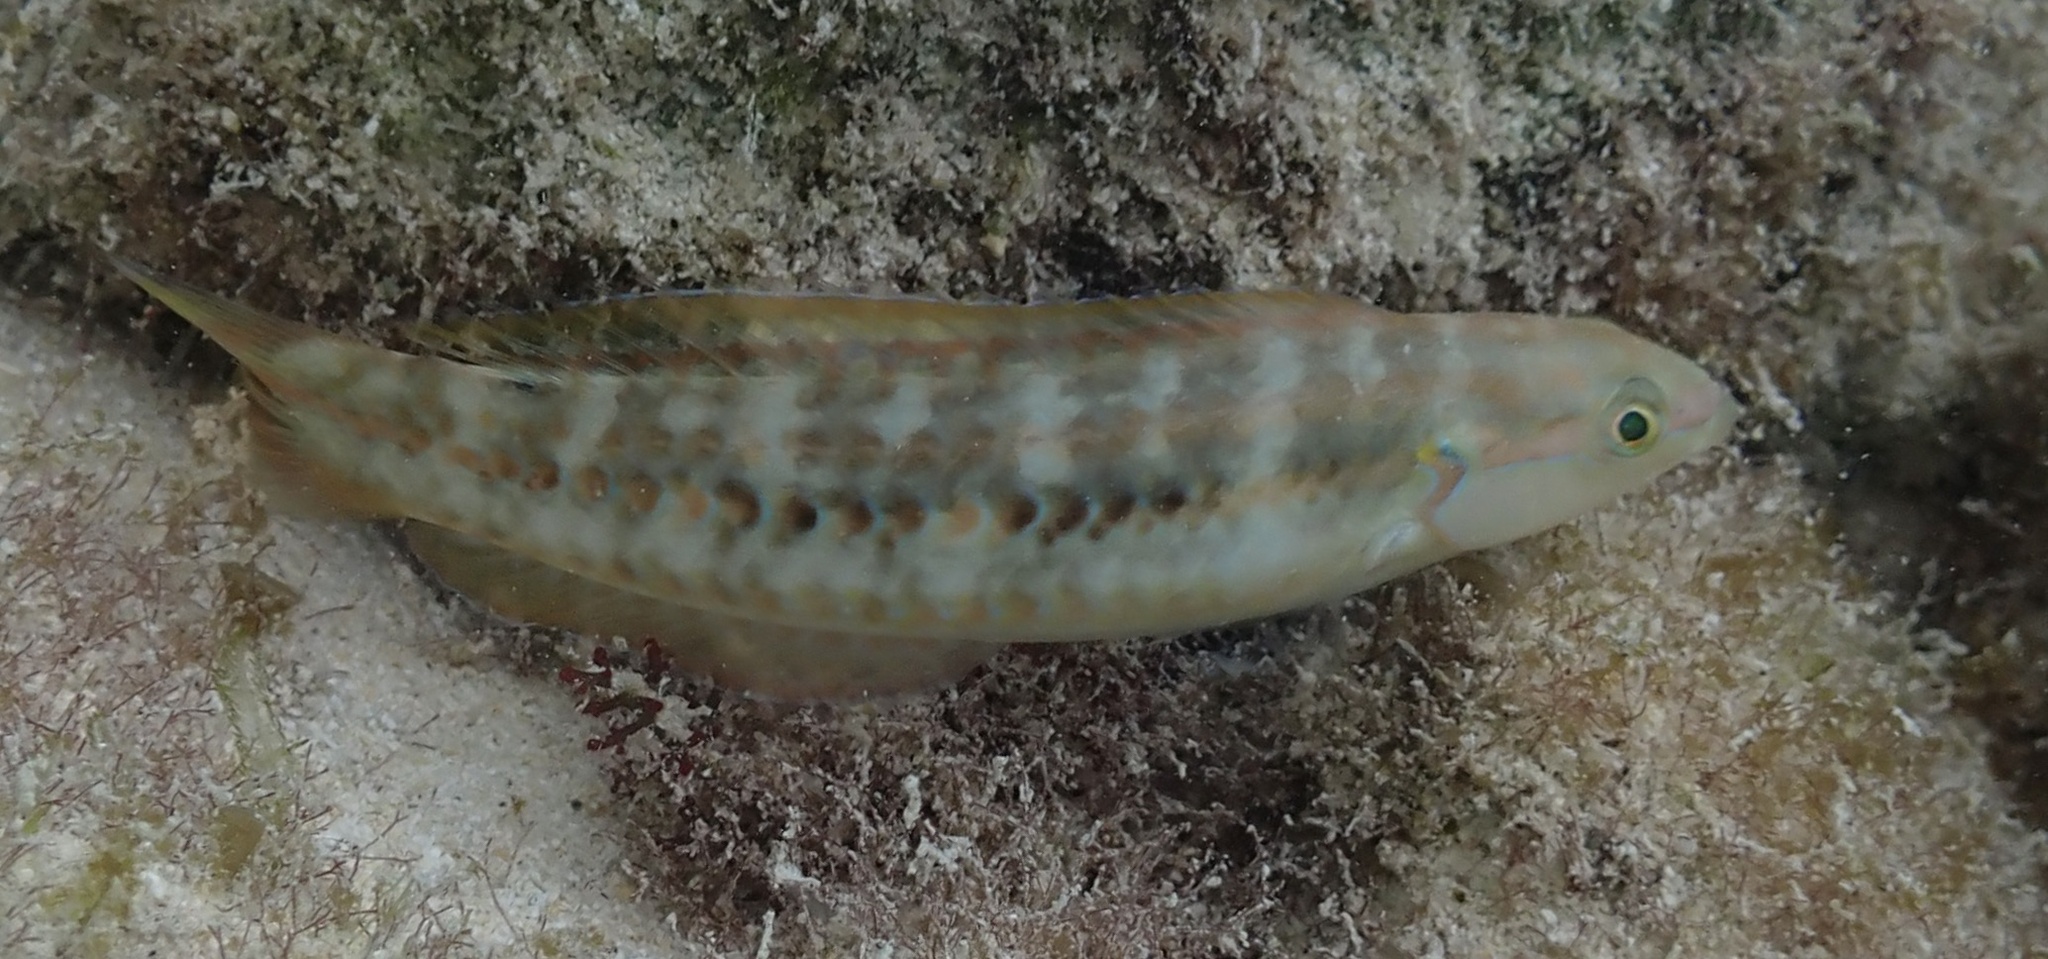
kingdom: Animalia
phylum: Chordata
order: Perciformes
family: Labridae
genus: Halichoeres
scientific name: Halichoeres bivittatus
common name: Slippery dick
